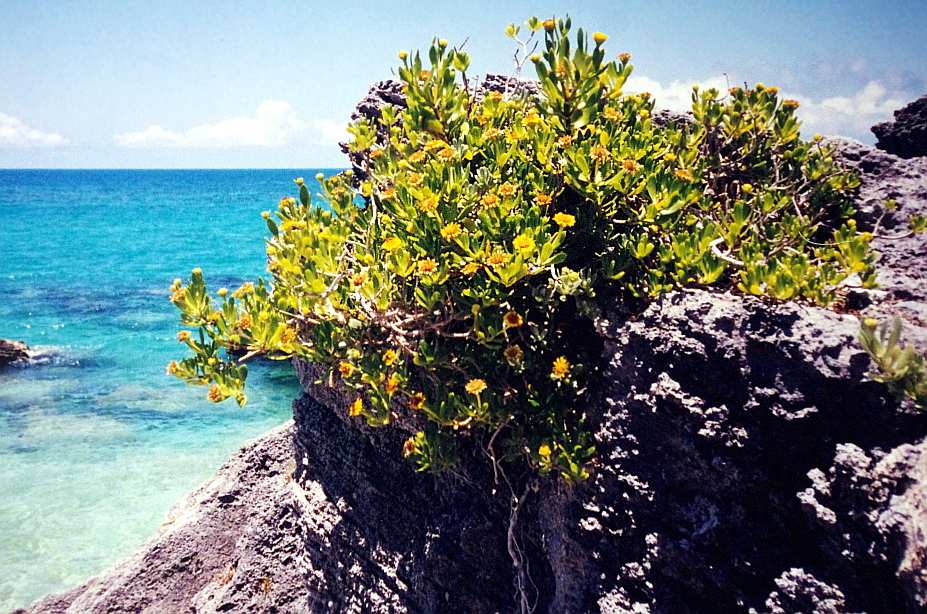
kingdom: Plantae
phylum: Tracheophyta
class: Magnoliopsida
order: Asterales
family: Asteraceae
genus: Borrichia
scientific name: Borrichia arborescens
